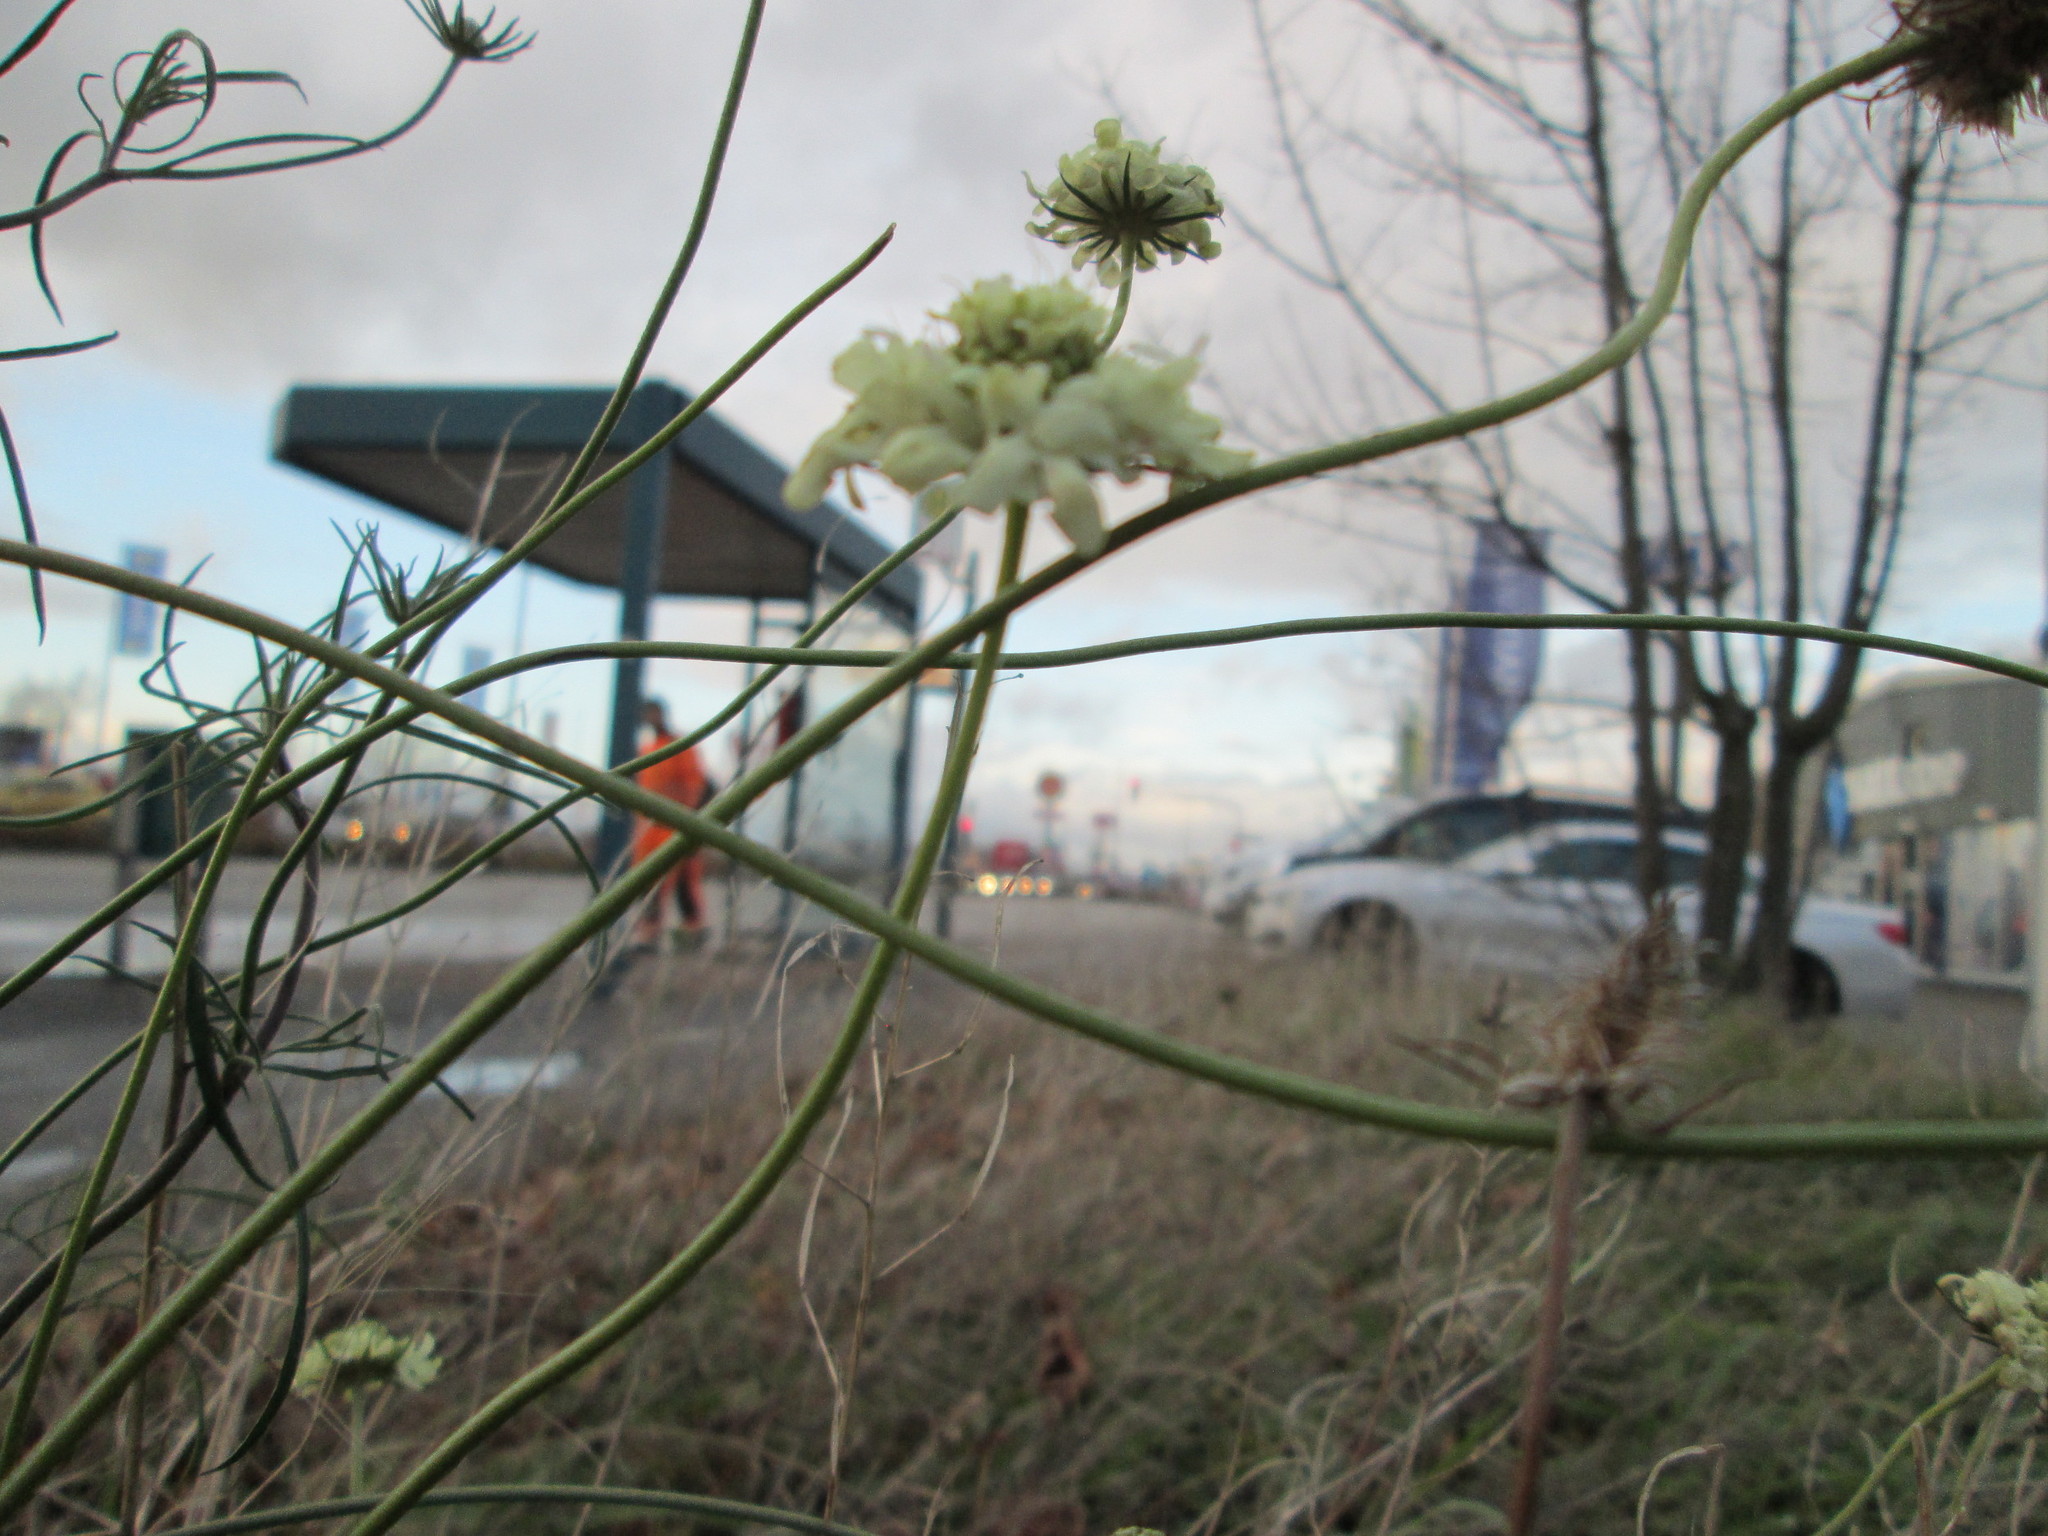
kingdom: Plantae
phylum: Tracheophyta
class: Magnoliopsida
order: Dipsacales
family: Caprifoliaceae
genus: Scabiosa
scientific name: Scabiosa ochroleuca
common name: Cream pincushions
